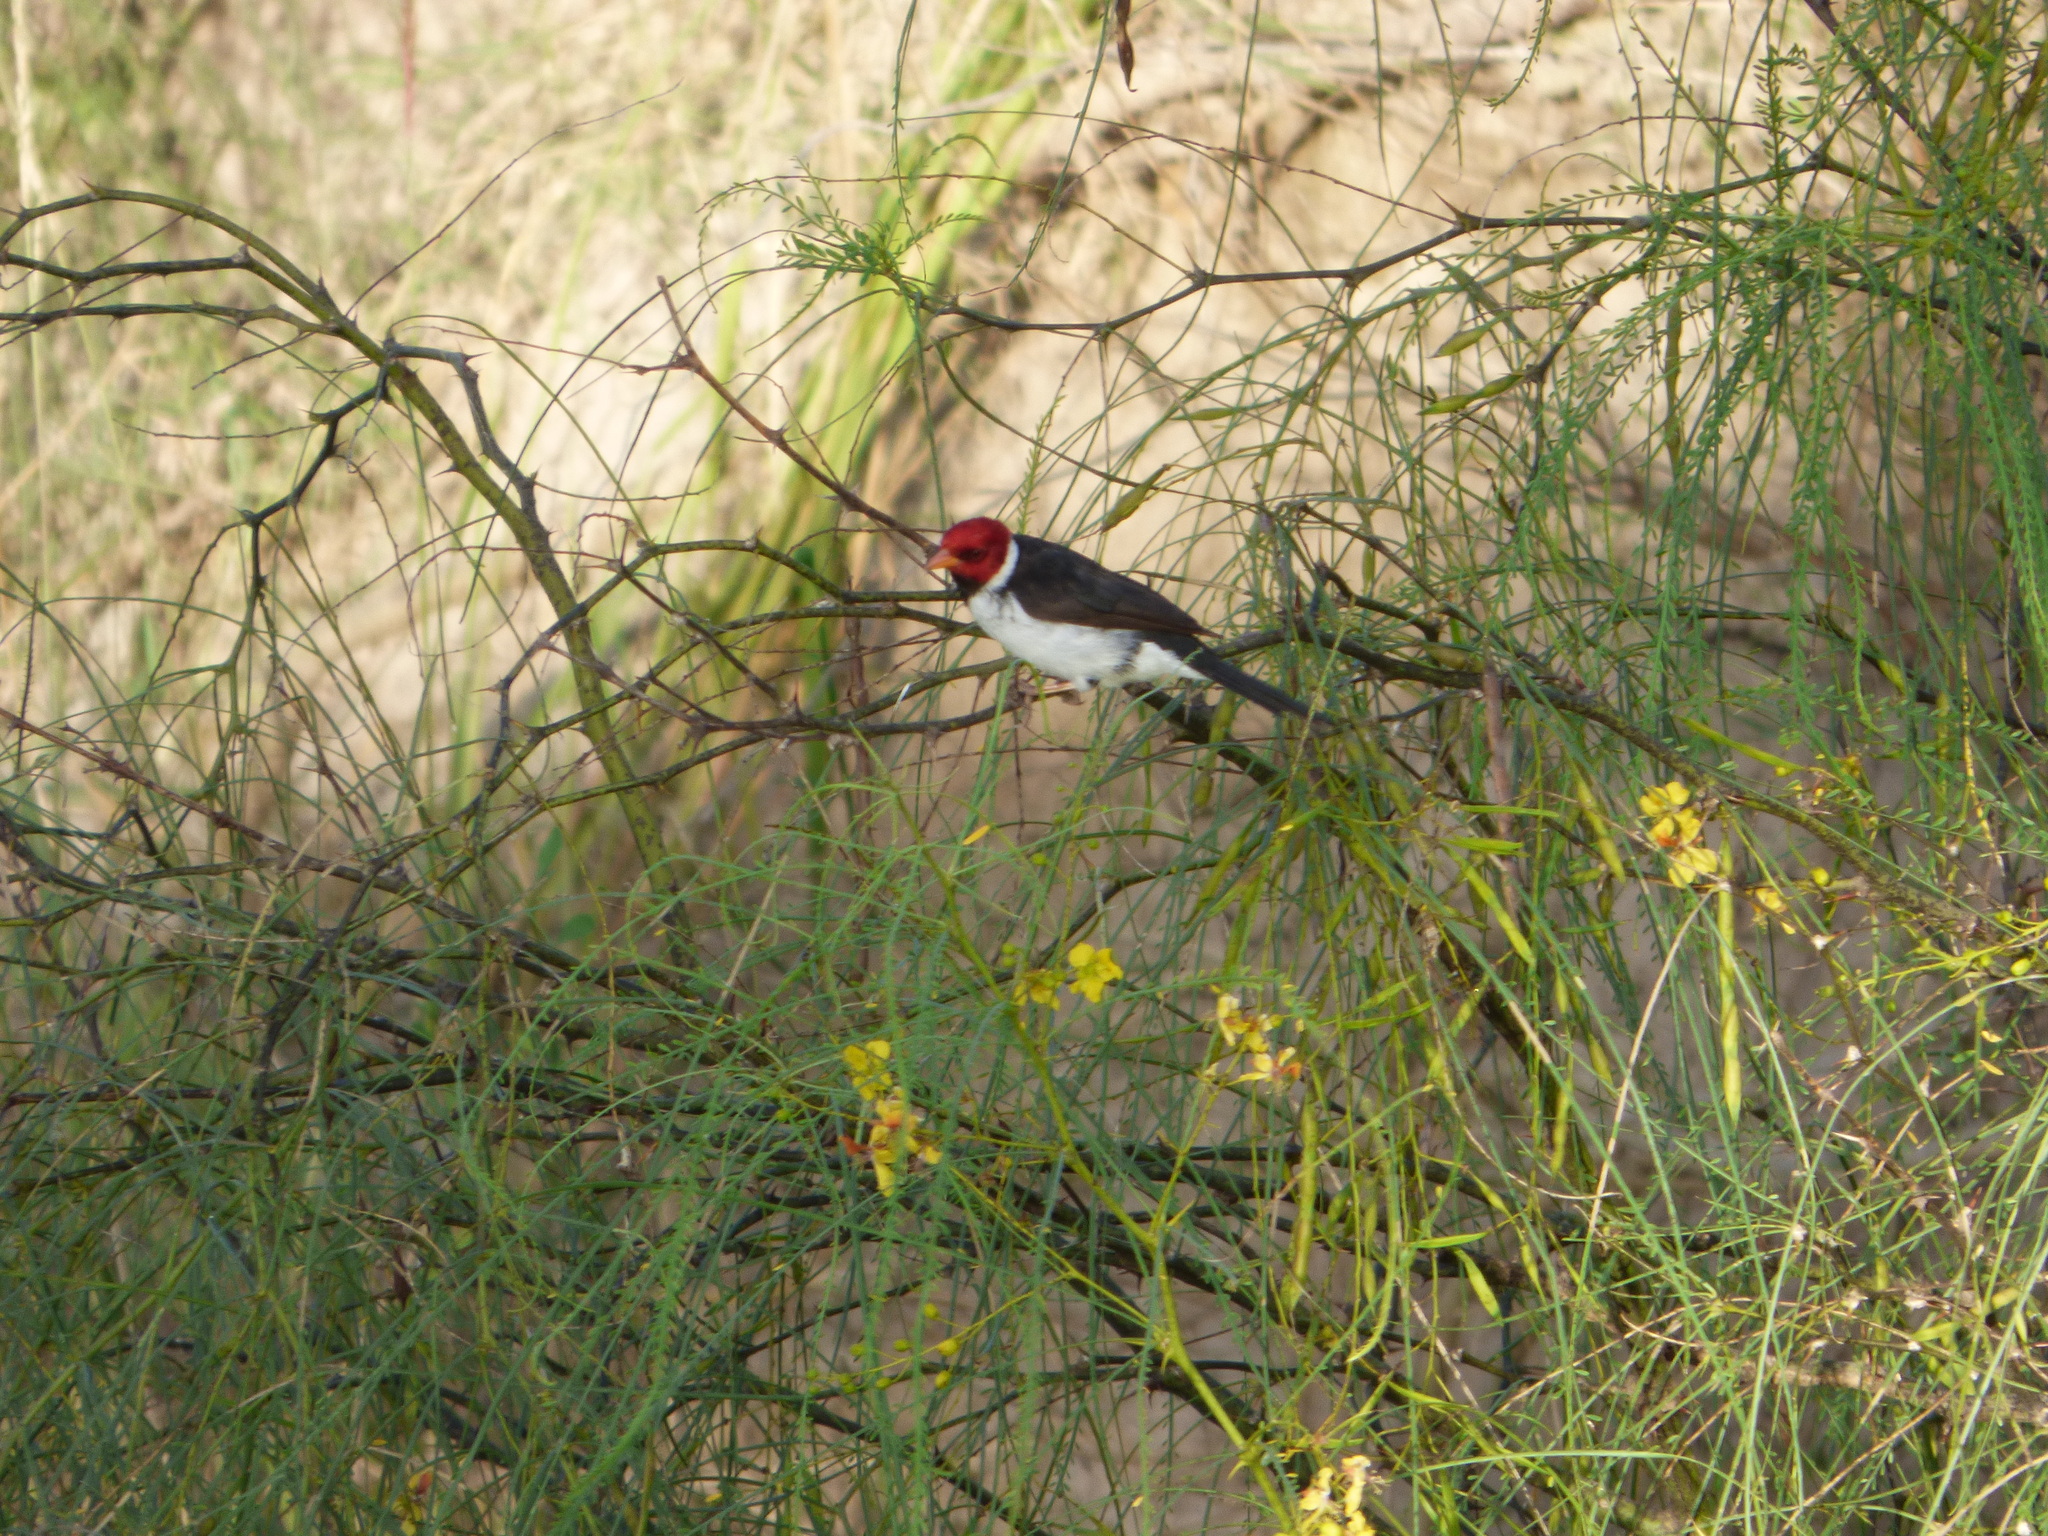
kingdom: Animalia
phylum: Chordata
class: Aves
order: Passeriformes
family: Thraupidae
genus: Paroaria
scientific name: Paroaria capitata
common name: Yellow-billed cardinal
